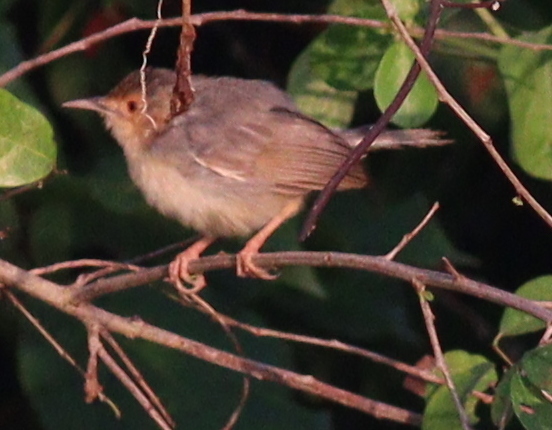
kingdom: Animalia
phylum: Chordata
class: Aves
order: Passeriformes
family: Cisticolidae
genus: Cisticola
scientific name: Cisticola erythrops
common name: Red-faced cisticola
